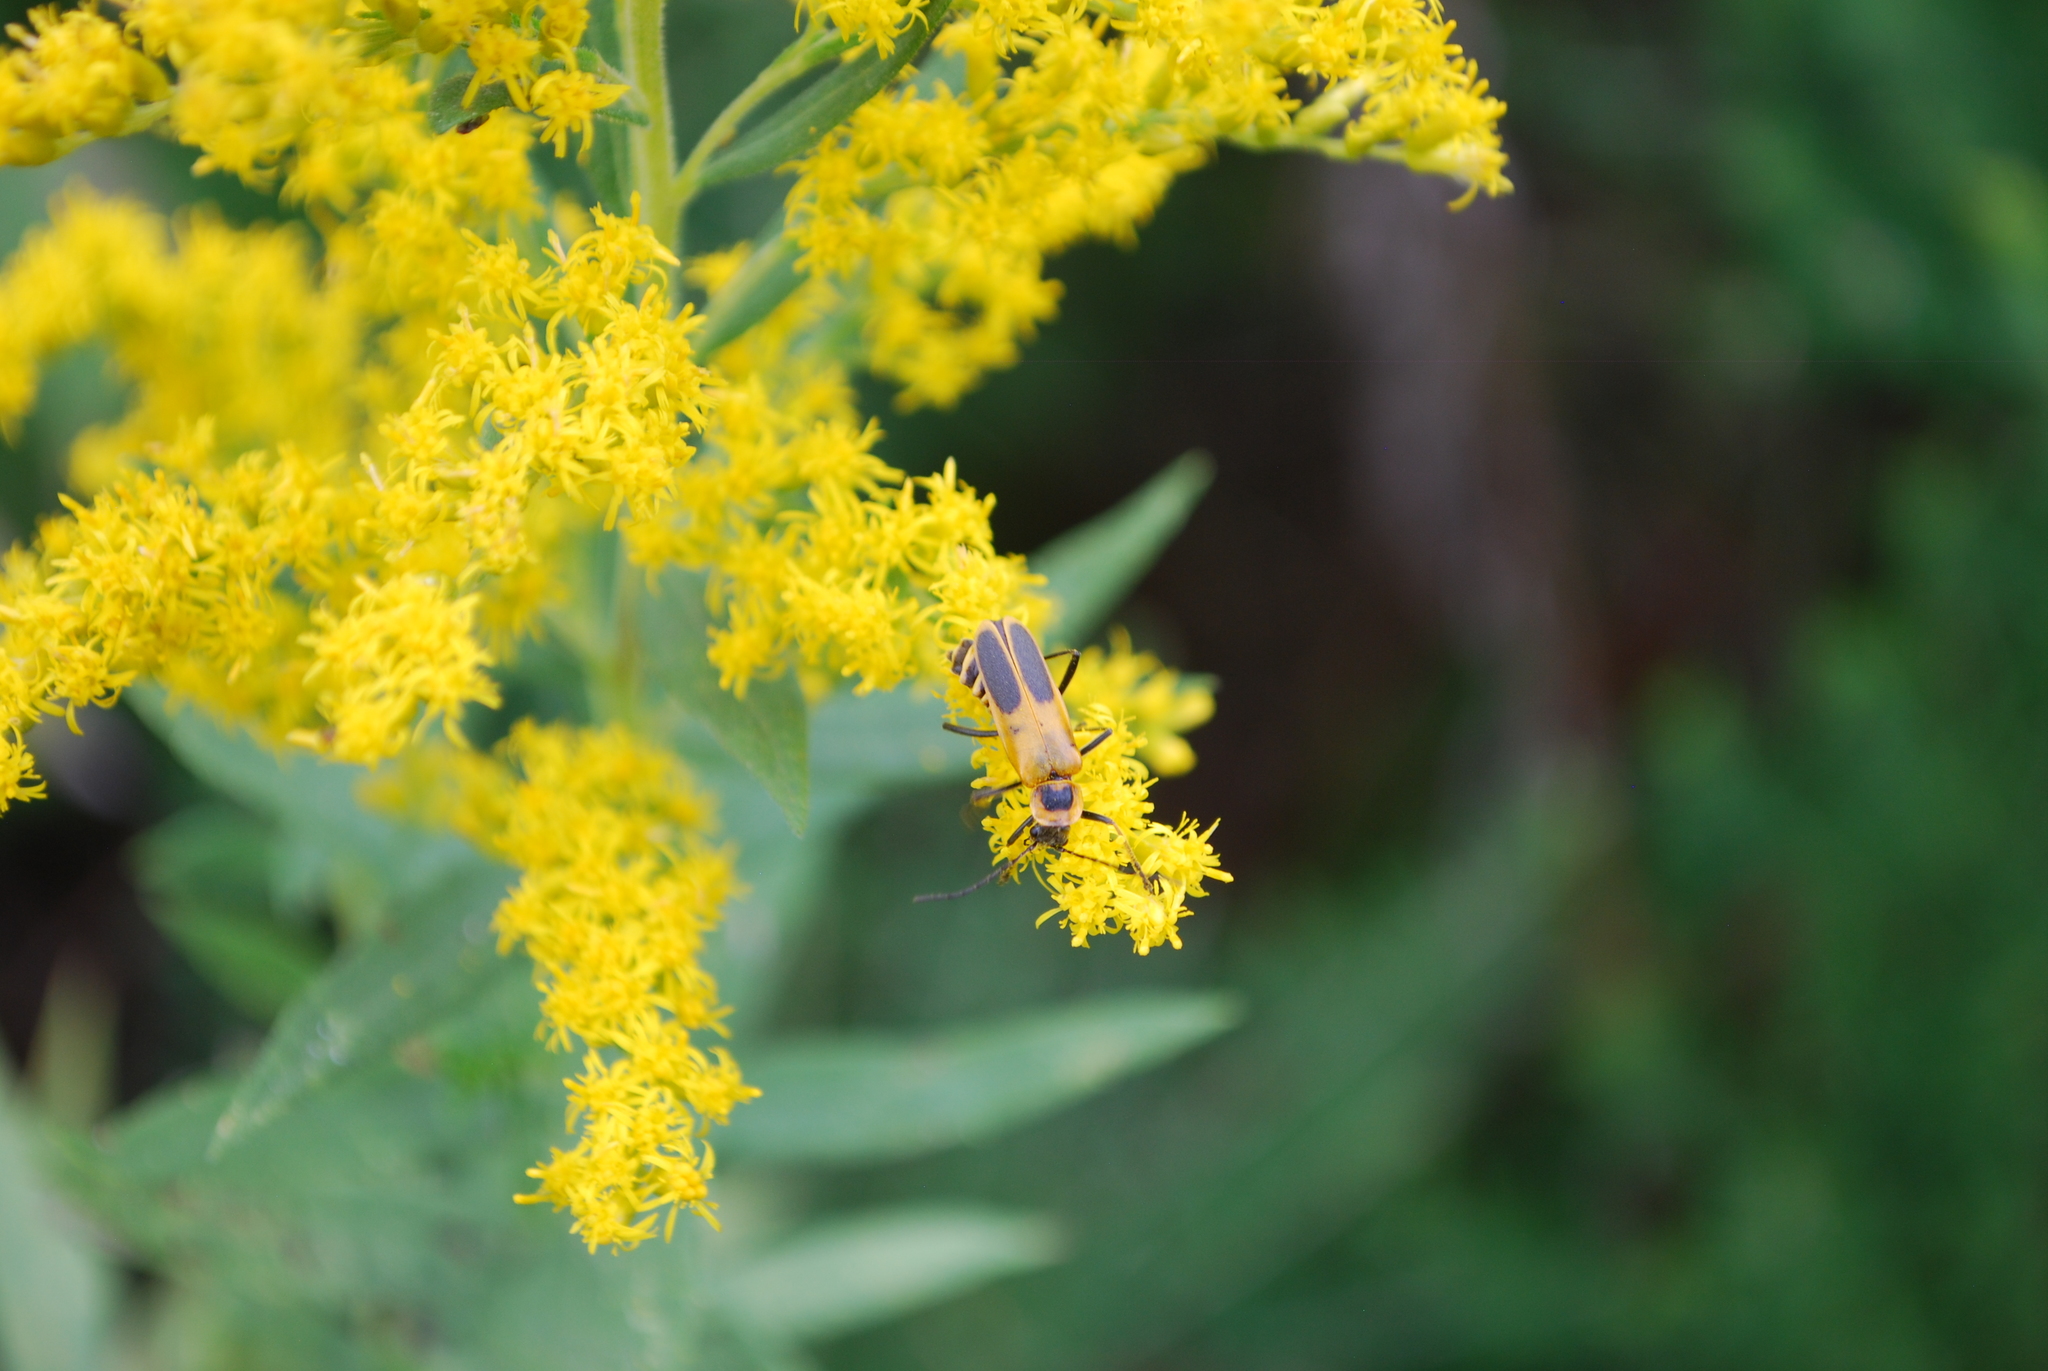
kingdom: Animalia
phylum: Arthropoda
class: Insecta
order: Coleoptera
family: Cantharidae
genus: Chauliognathus
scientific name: Chauliognathus pensylvanicus
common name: Goldenrod soldier beetle
